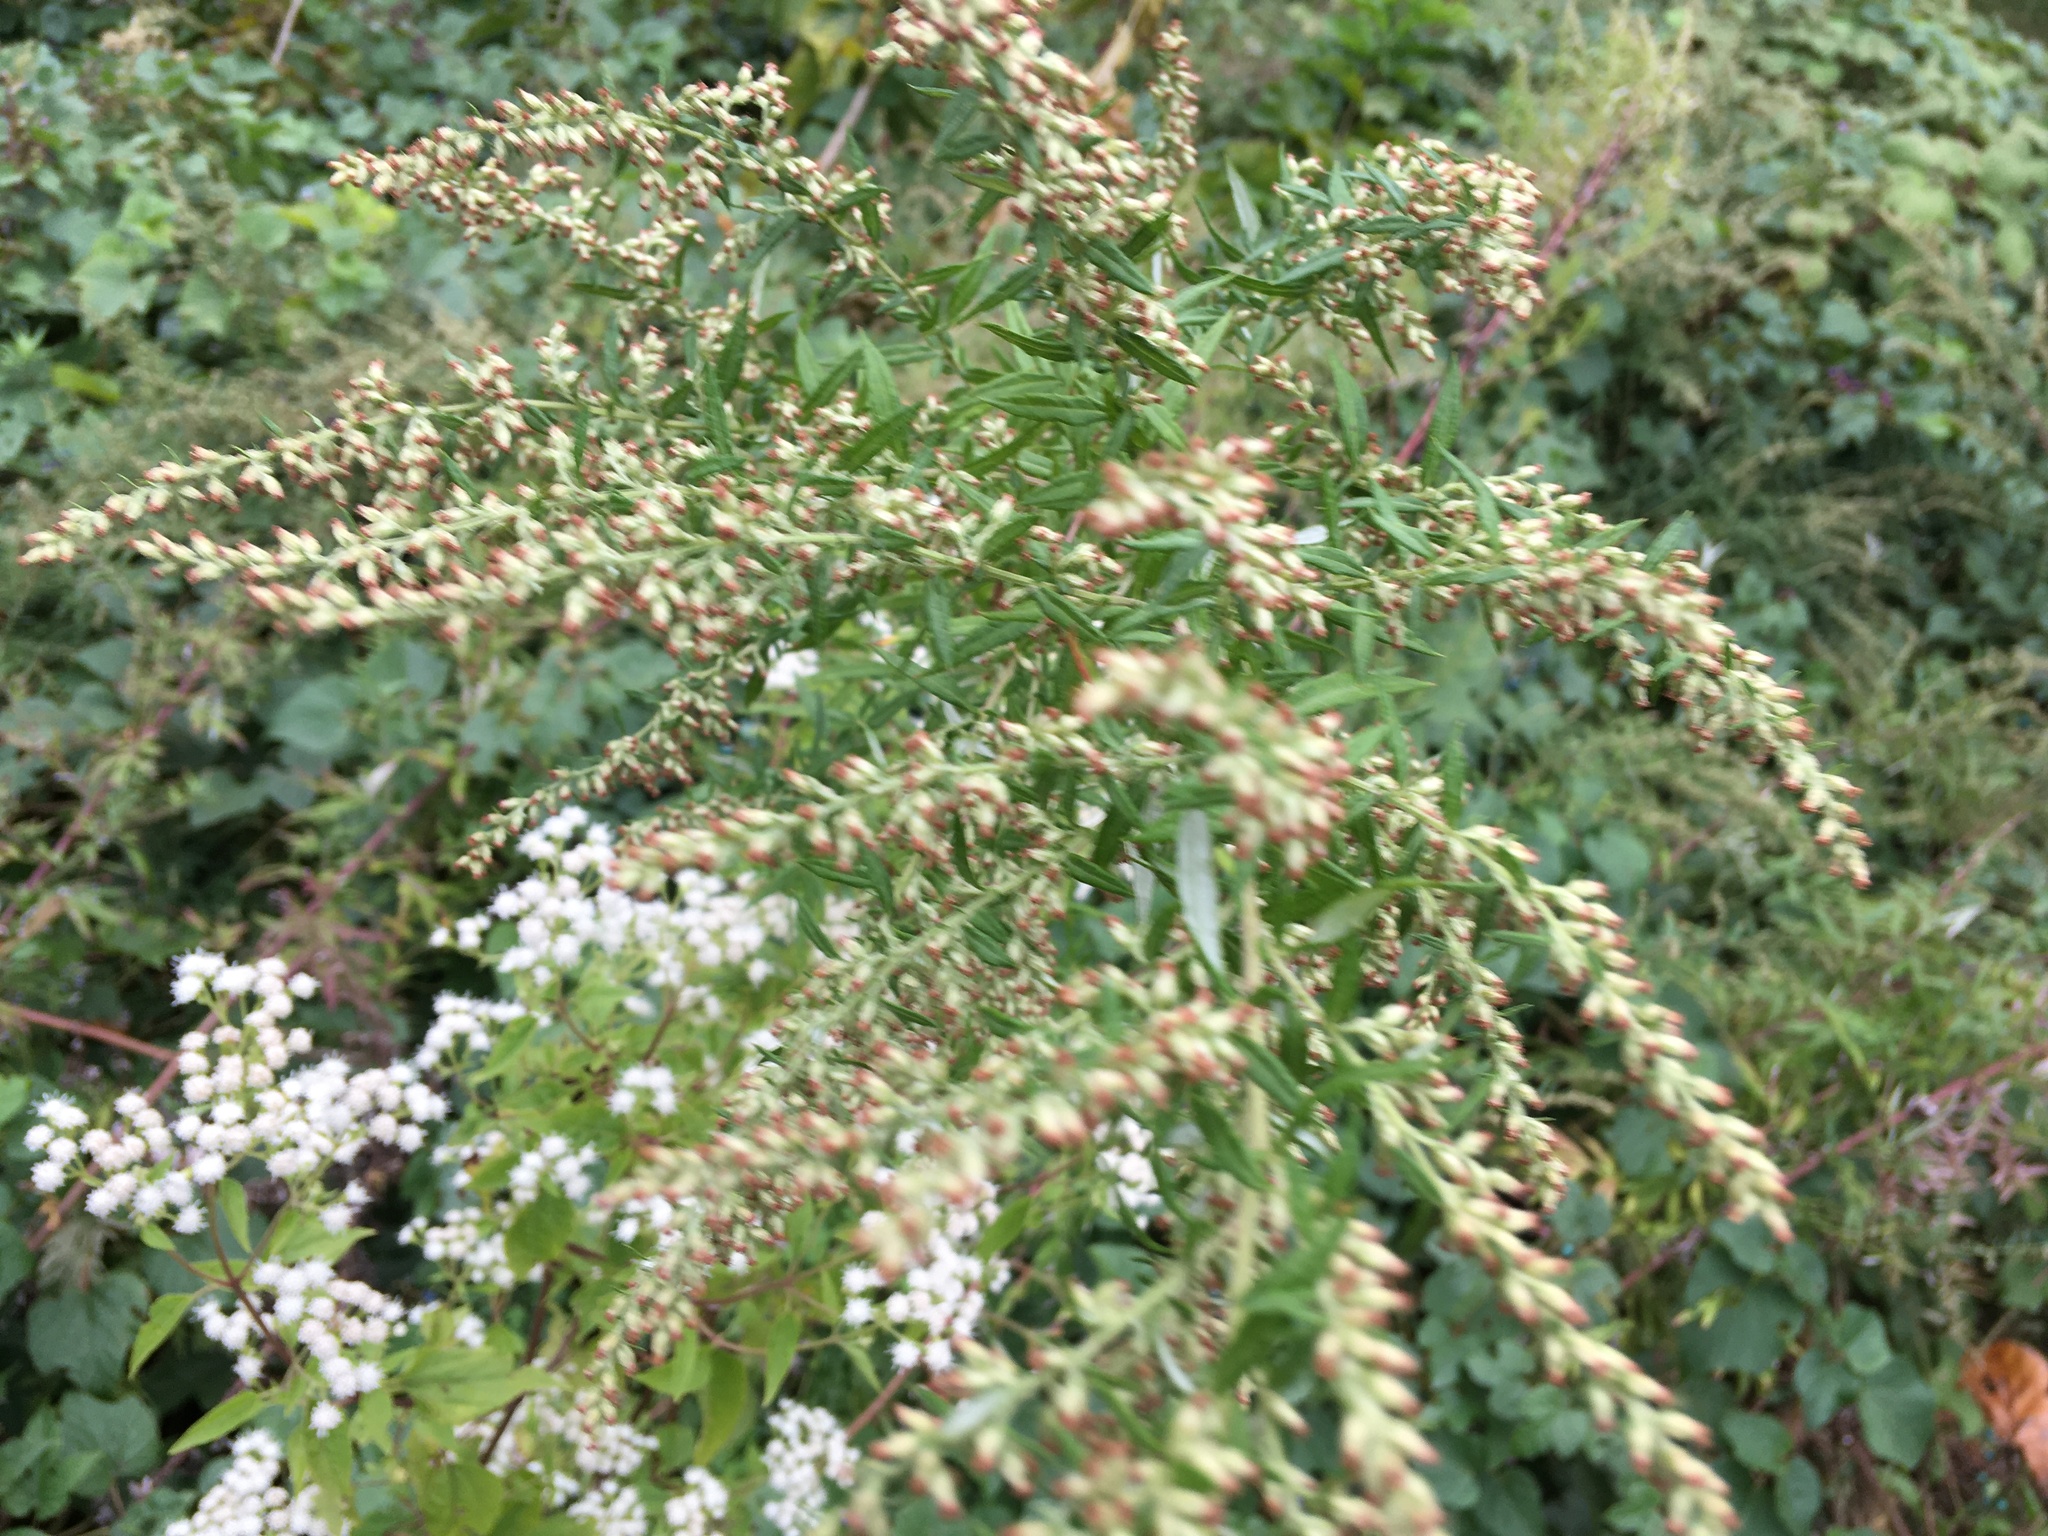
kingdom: Plantae
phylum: Tracheophyta
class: Magnoliopsida
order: Asterales
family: Asteraceae
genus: Artemisia
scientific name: Artemisia vulgaris
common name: Mugwort
